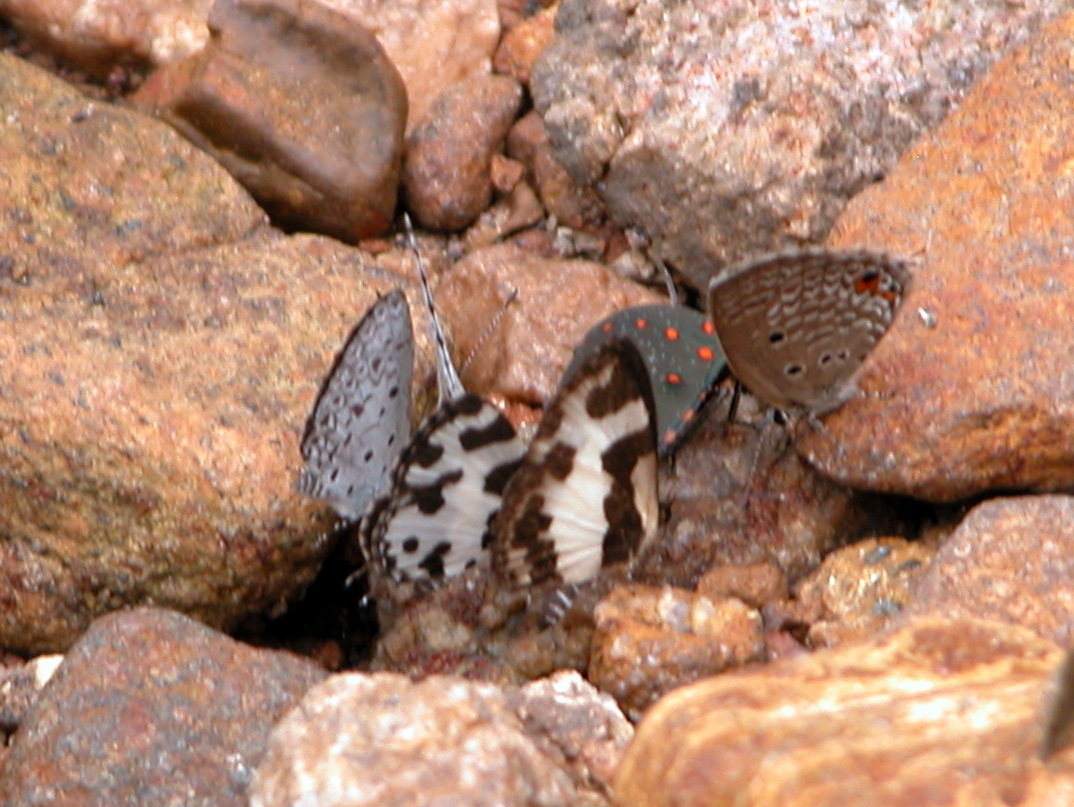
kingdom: Animalia
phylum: Arthropoda
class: Insecta
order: Lepidoptera
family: Lycaenidae
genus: Caleta
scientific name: Caleta decidia
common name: Angled pierrot
